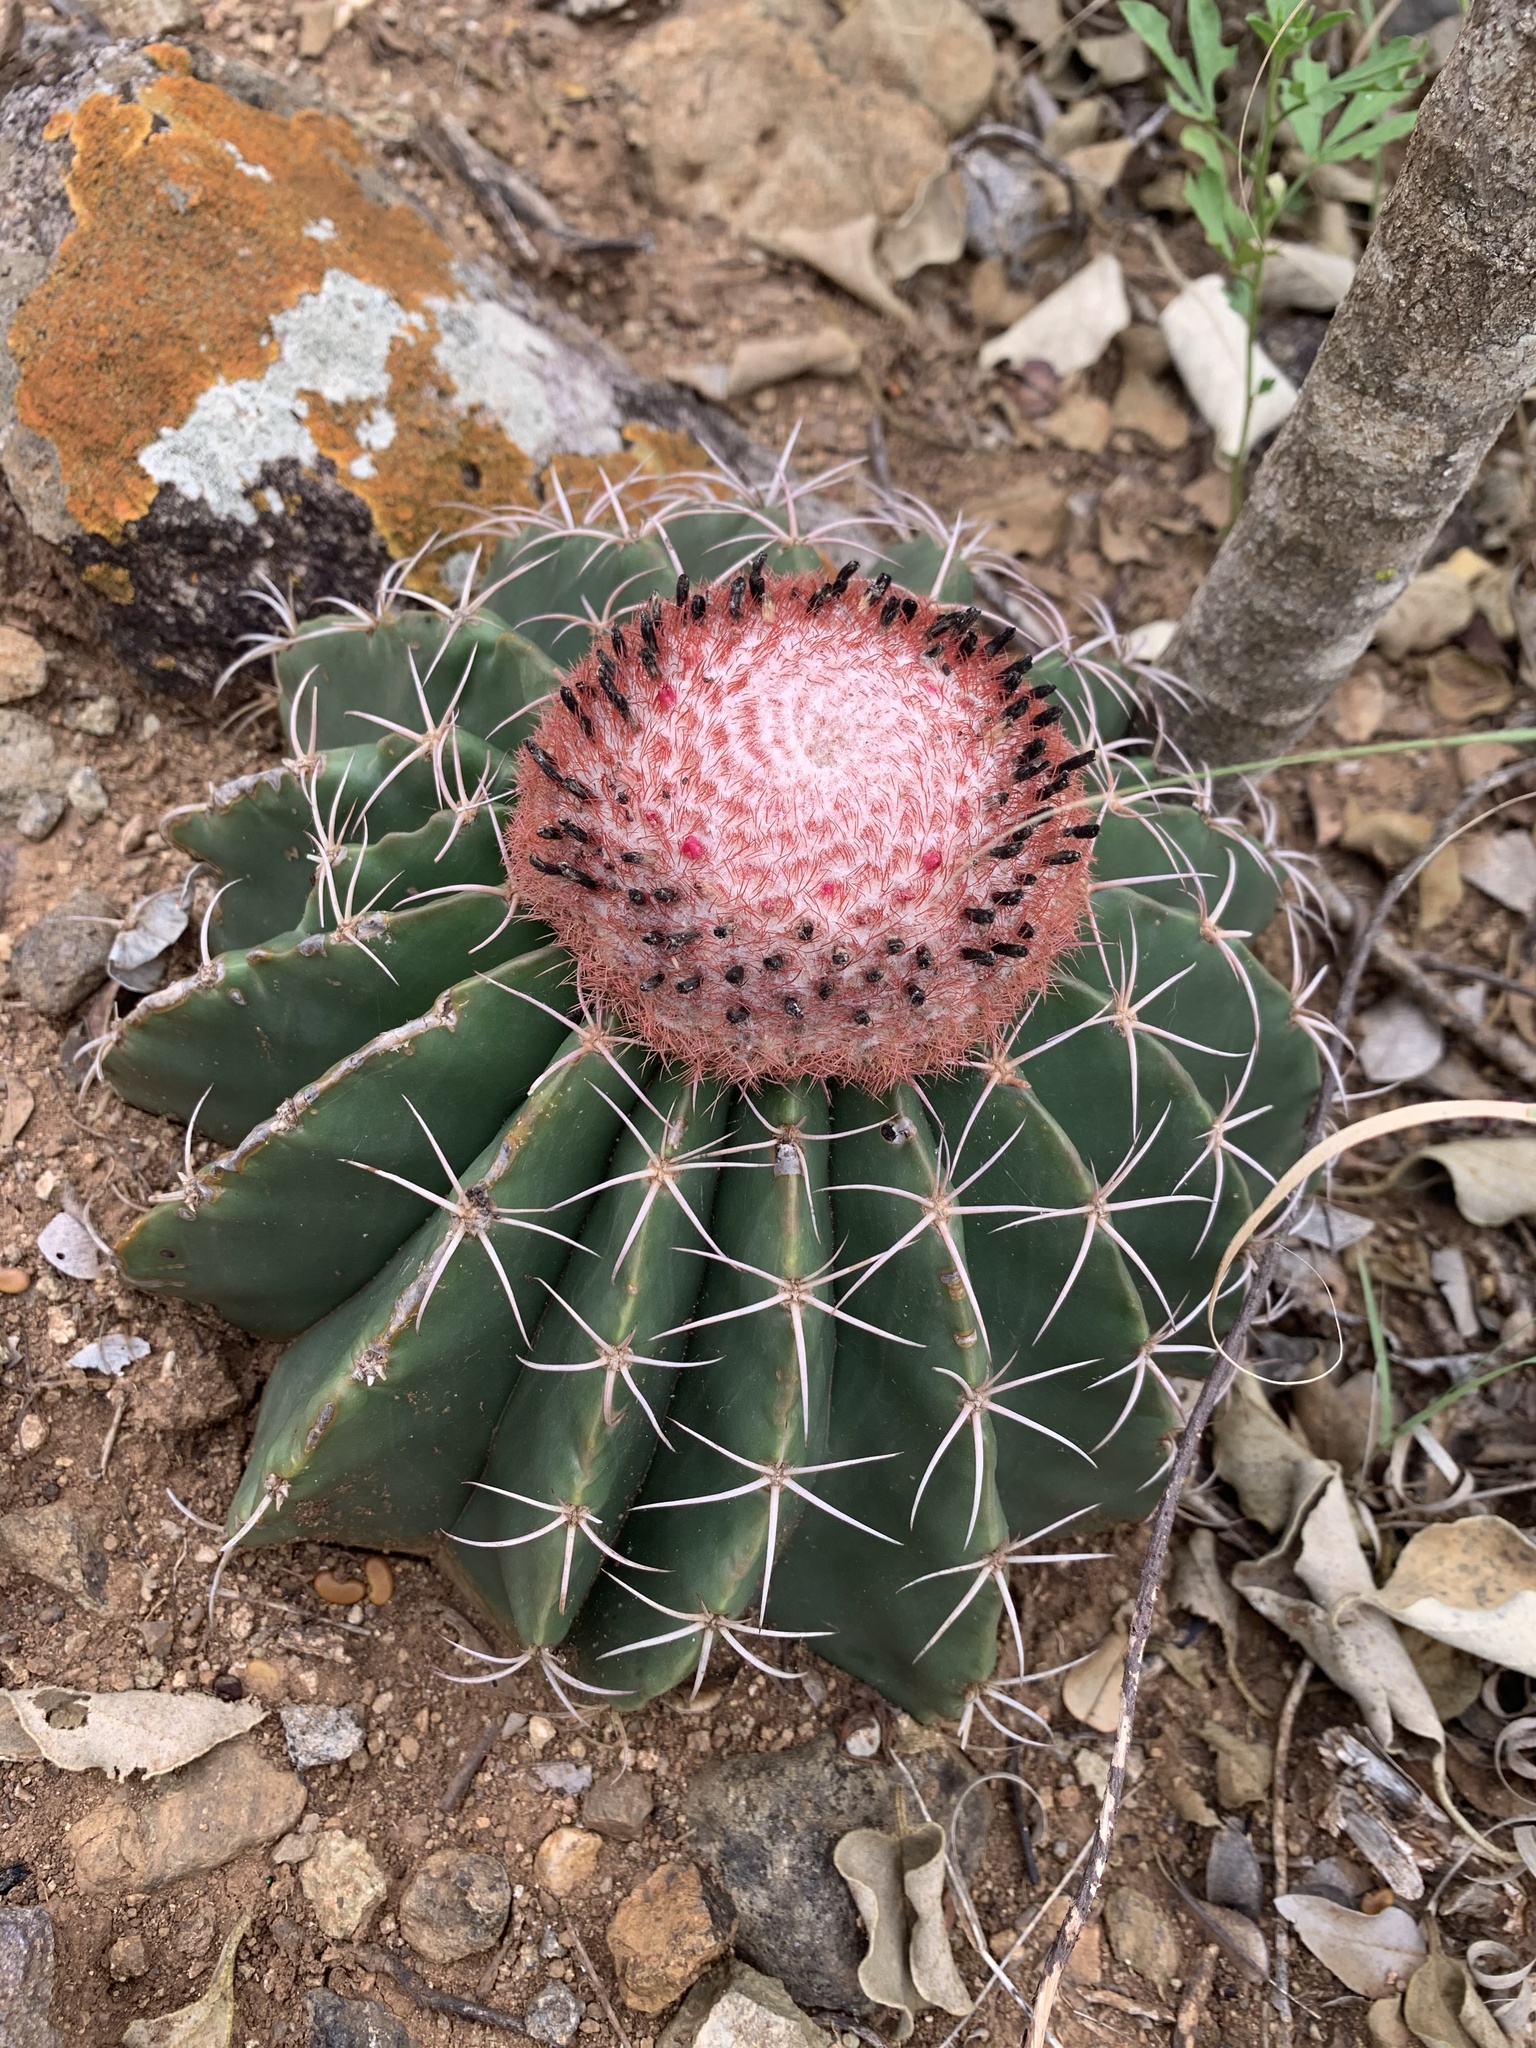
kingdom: Plantae
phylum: Tracheophyta
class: Magnoliopsida
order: Caryophyllales
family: Cactaceae
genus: Melocactus
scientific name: Melocactus bellavistensis
